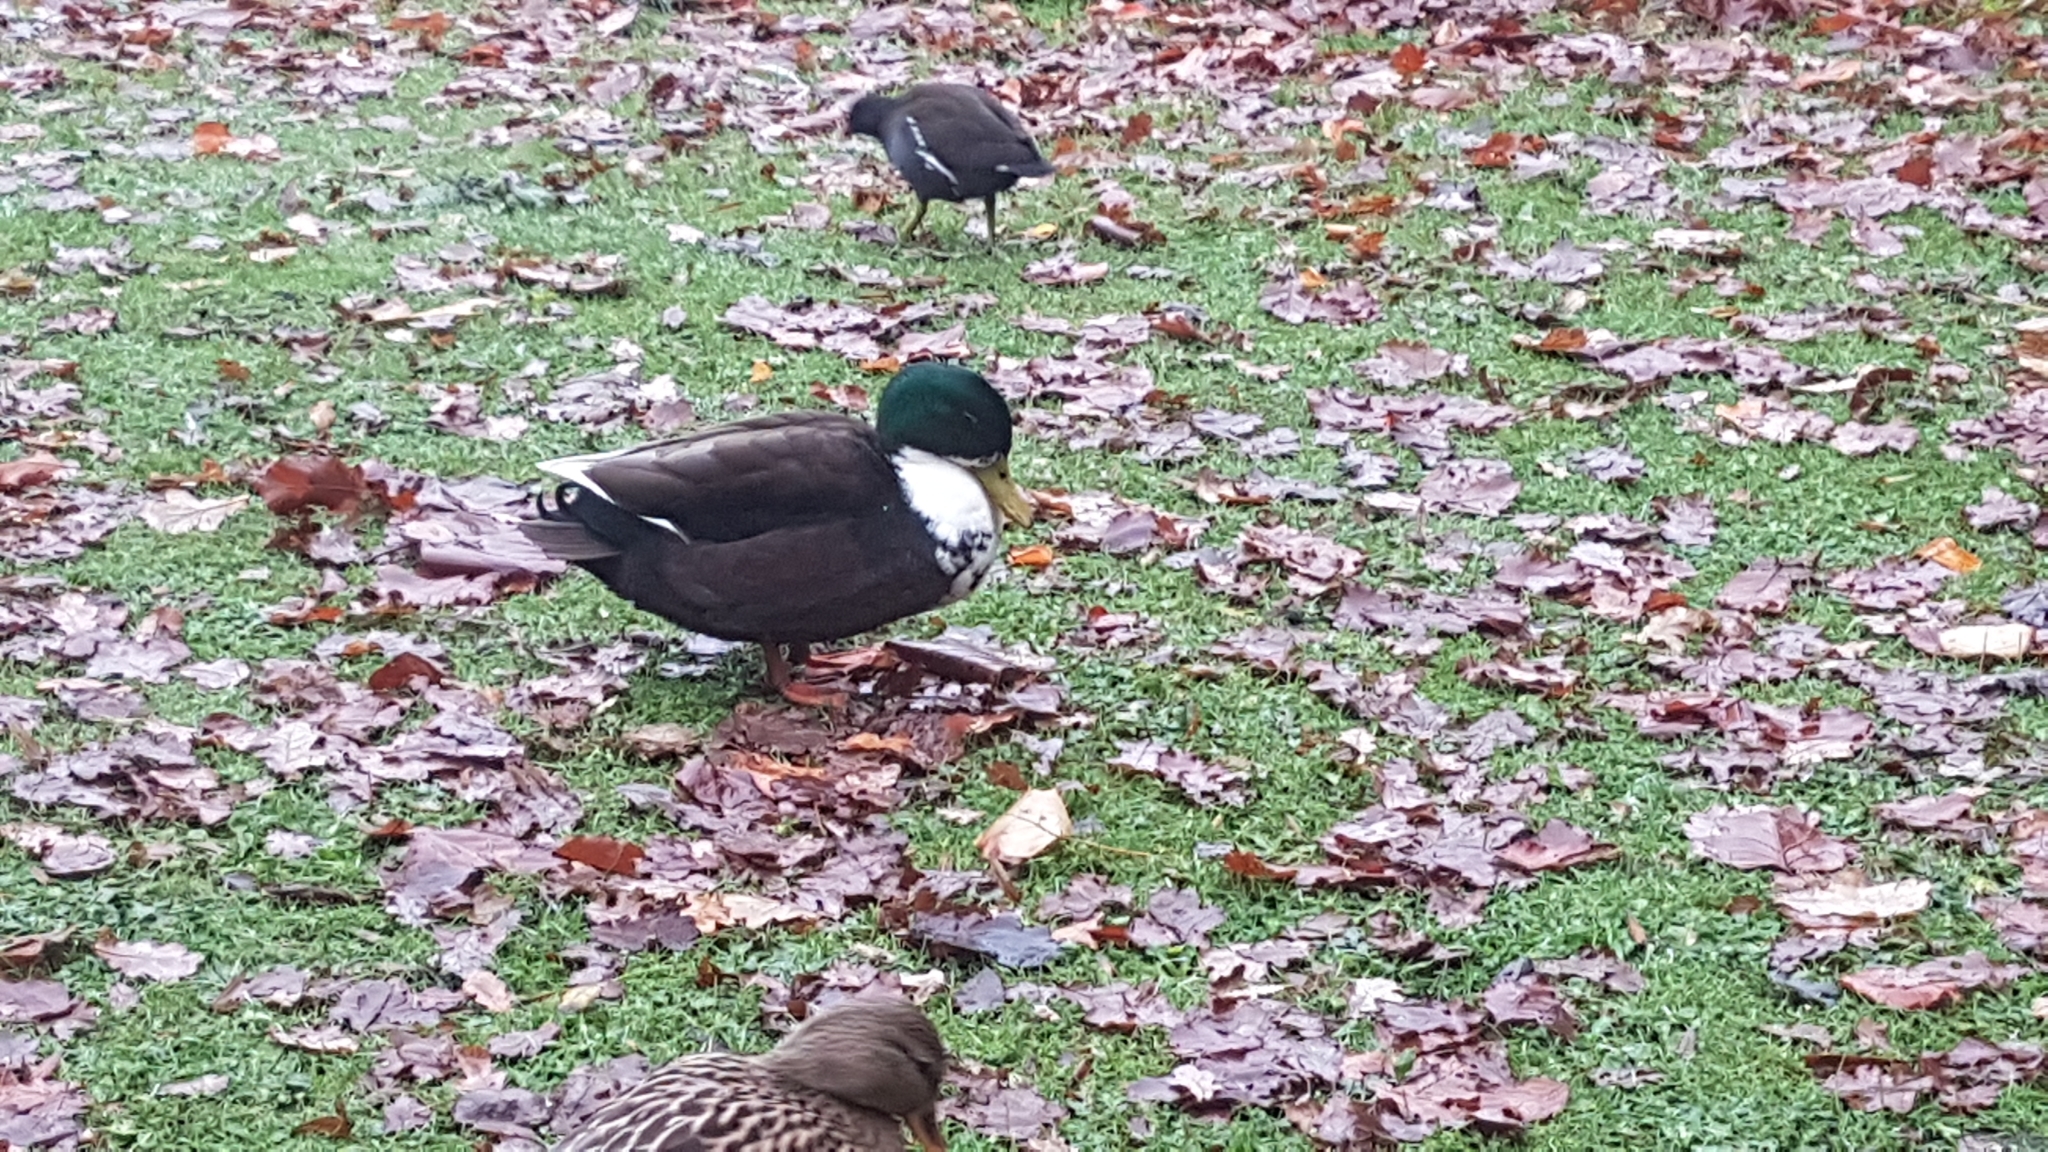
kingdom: Animalia
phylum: Chordata
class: Aves
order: Anseriformes
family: Anatidae
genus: Anas
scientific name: Anas platyrhynchos
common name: Mallard
